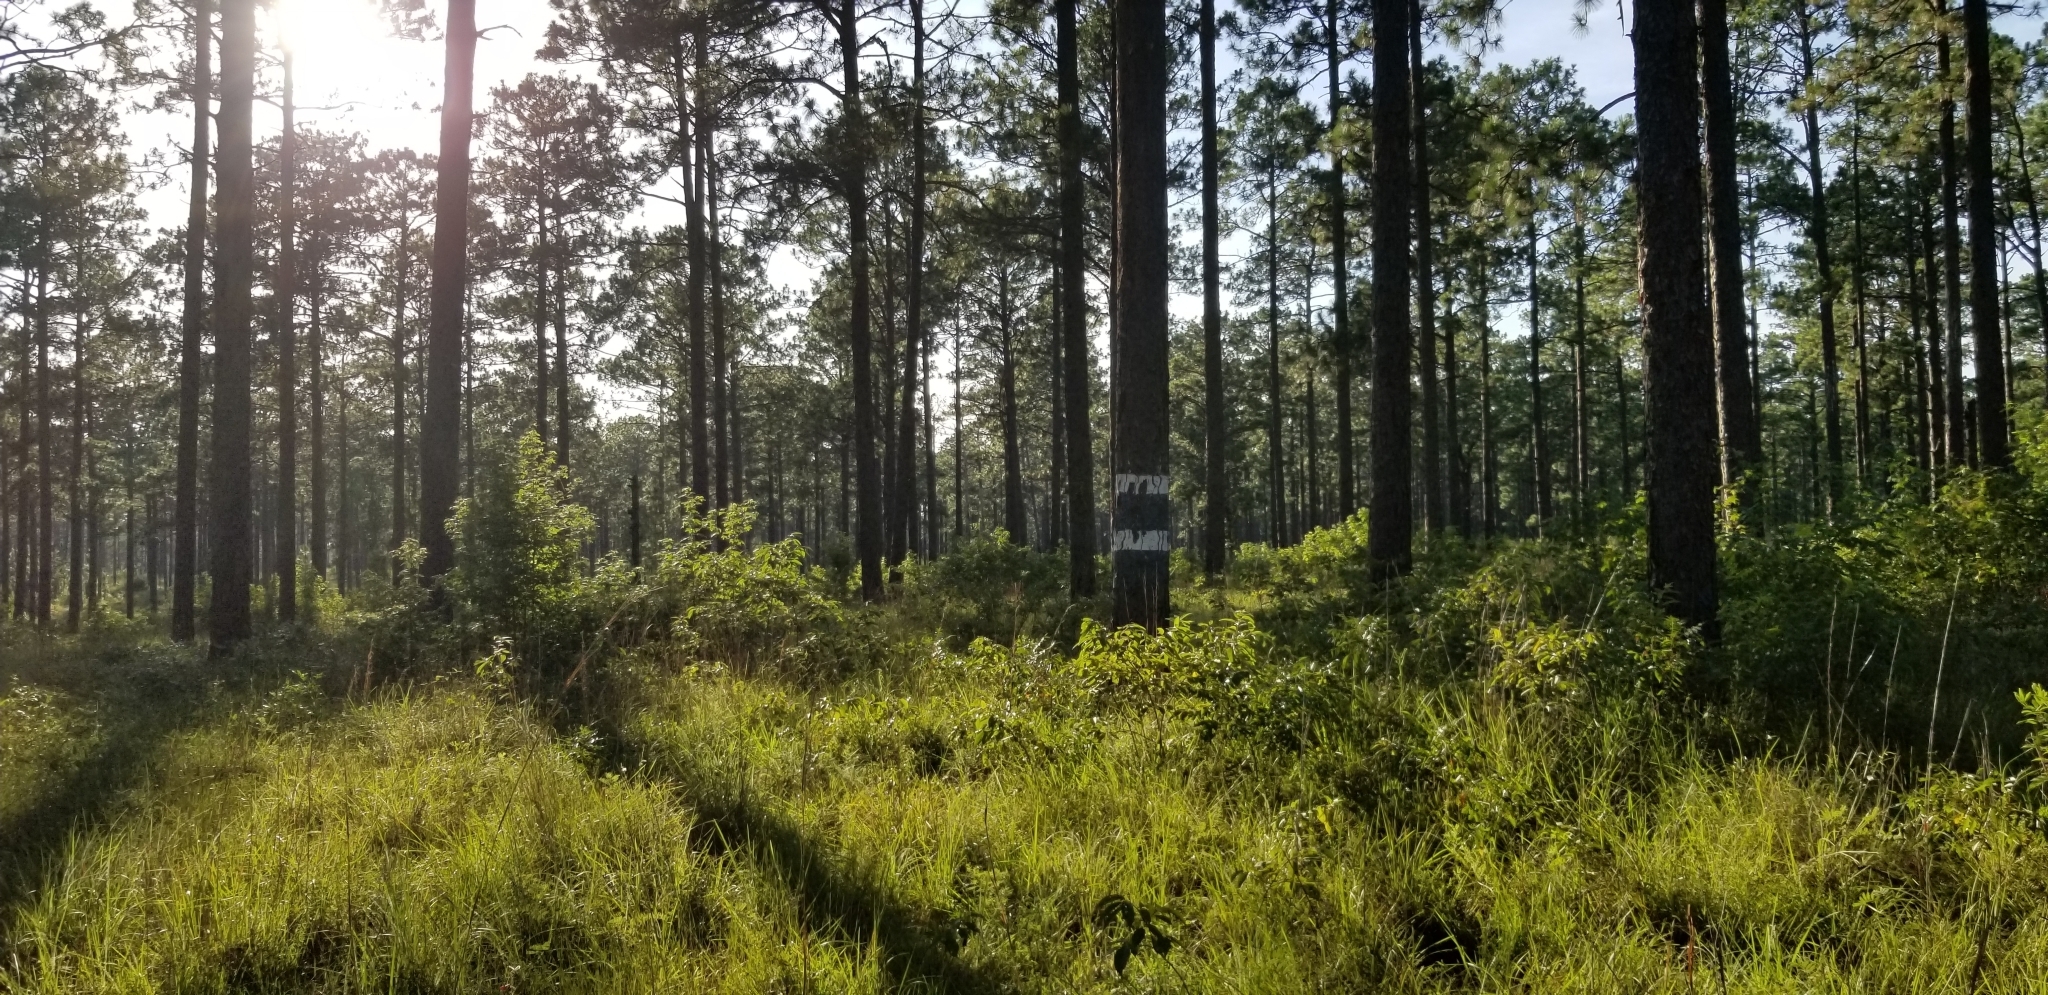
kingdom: Plantae
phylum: Tracheophyta
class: Pinopsida
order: Pinales
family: Pinaceae
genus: Pinus
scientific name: Pinus palustris
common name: Longleaf pine
